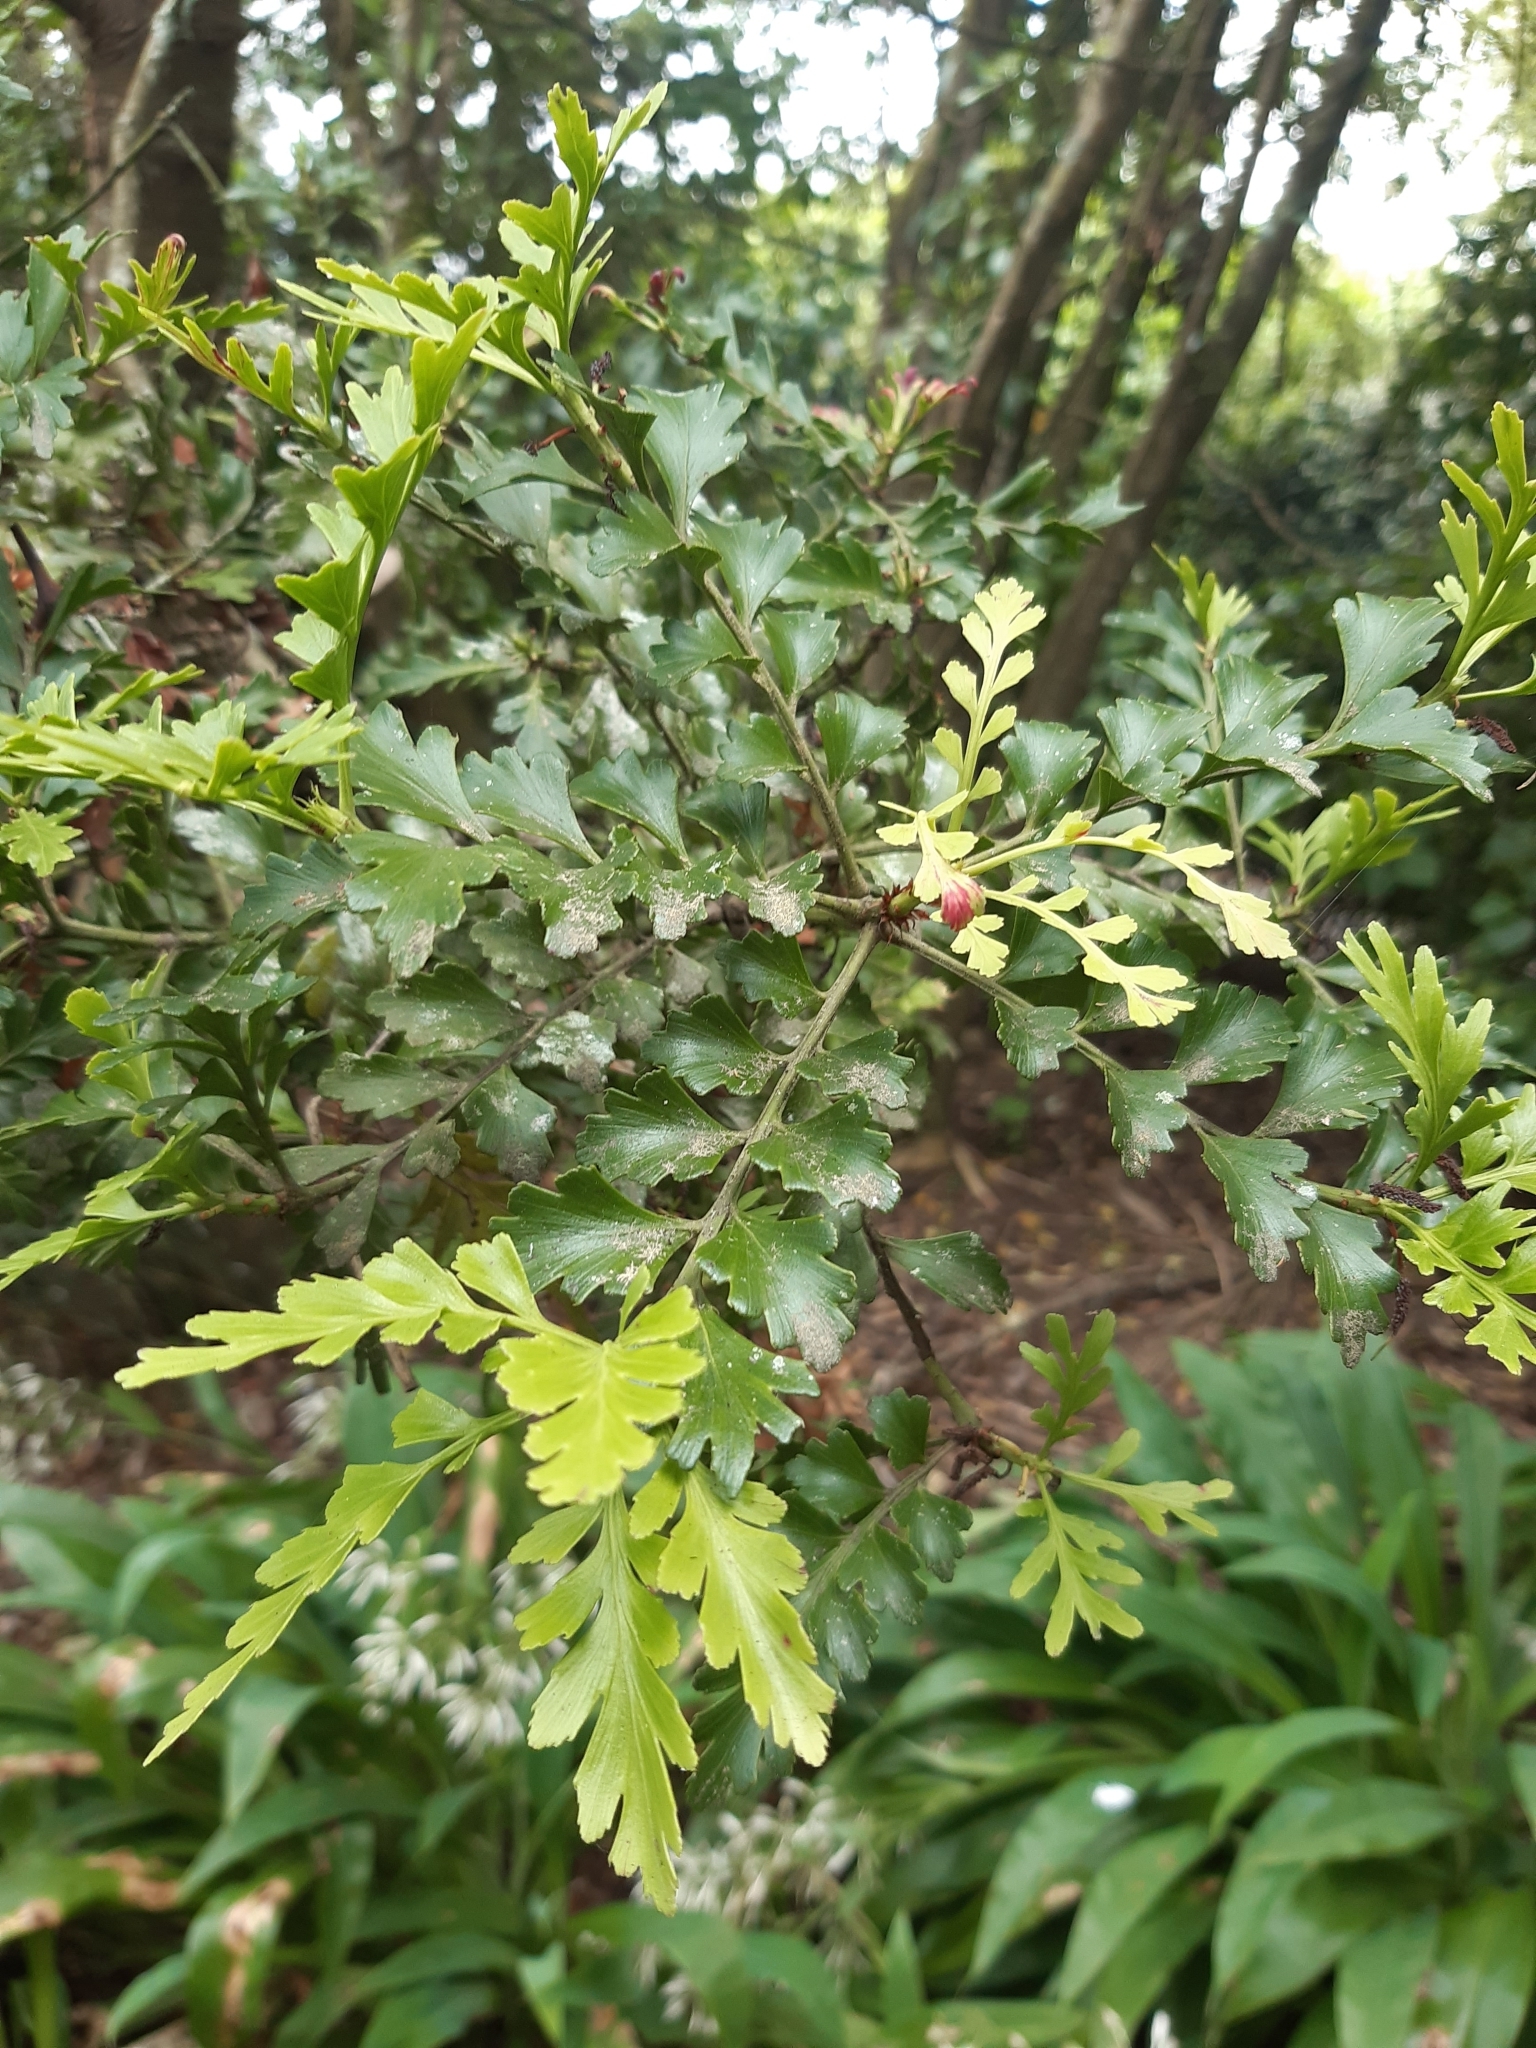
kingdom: Plantae
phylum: Tracheophyta
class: Pinopsida
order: Pinales
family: Phyllocladaceae
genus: Phyllocladus
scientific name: Phyllocladus trichomanoides
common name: Celery pine
